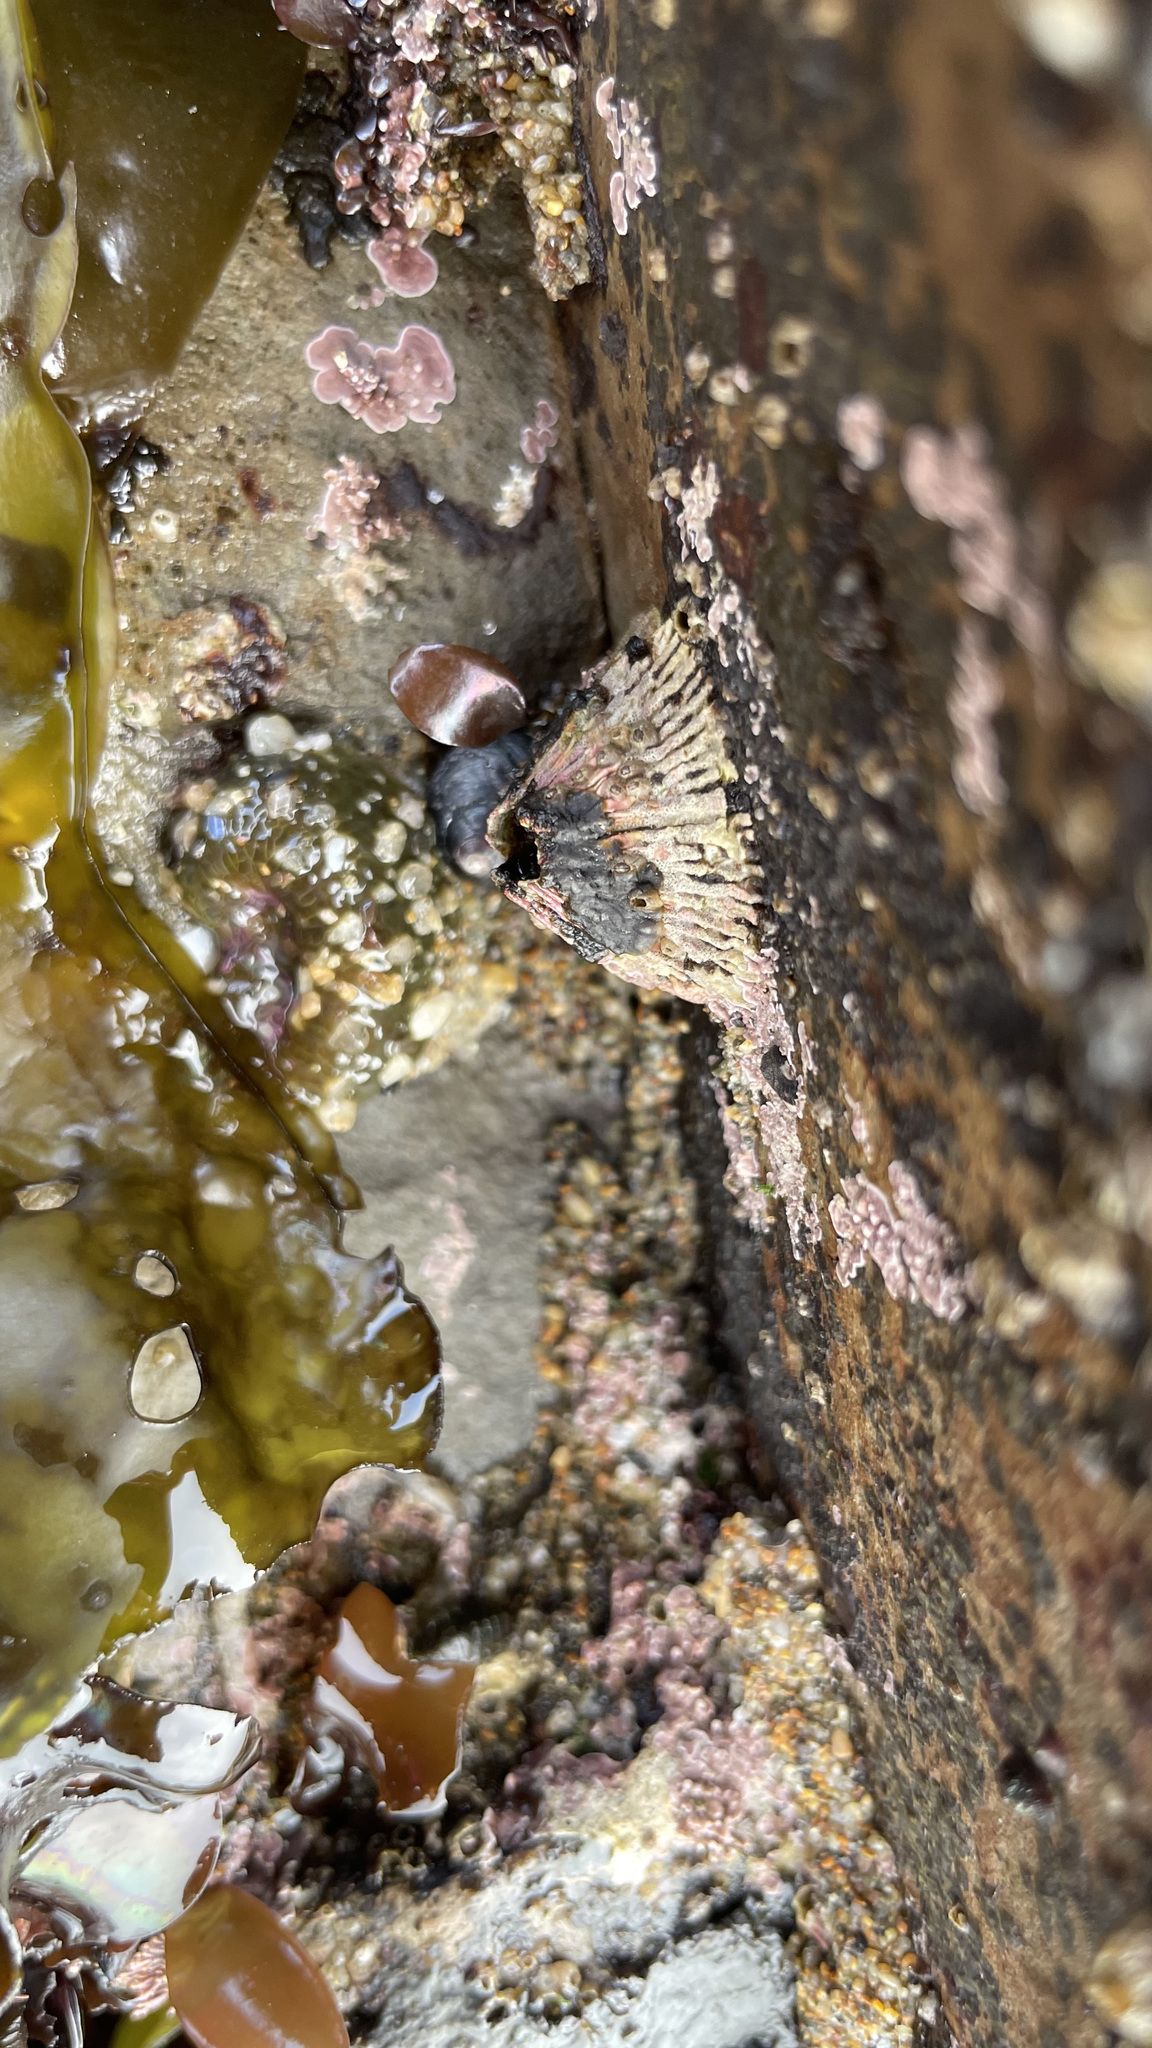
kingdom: Animalia
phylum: Arthropoda
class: Maxillopoda
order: Sessilia
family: Tetraclitidae
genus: Tetraclita
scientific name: Tetraclita rubescens
